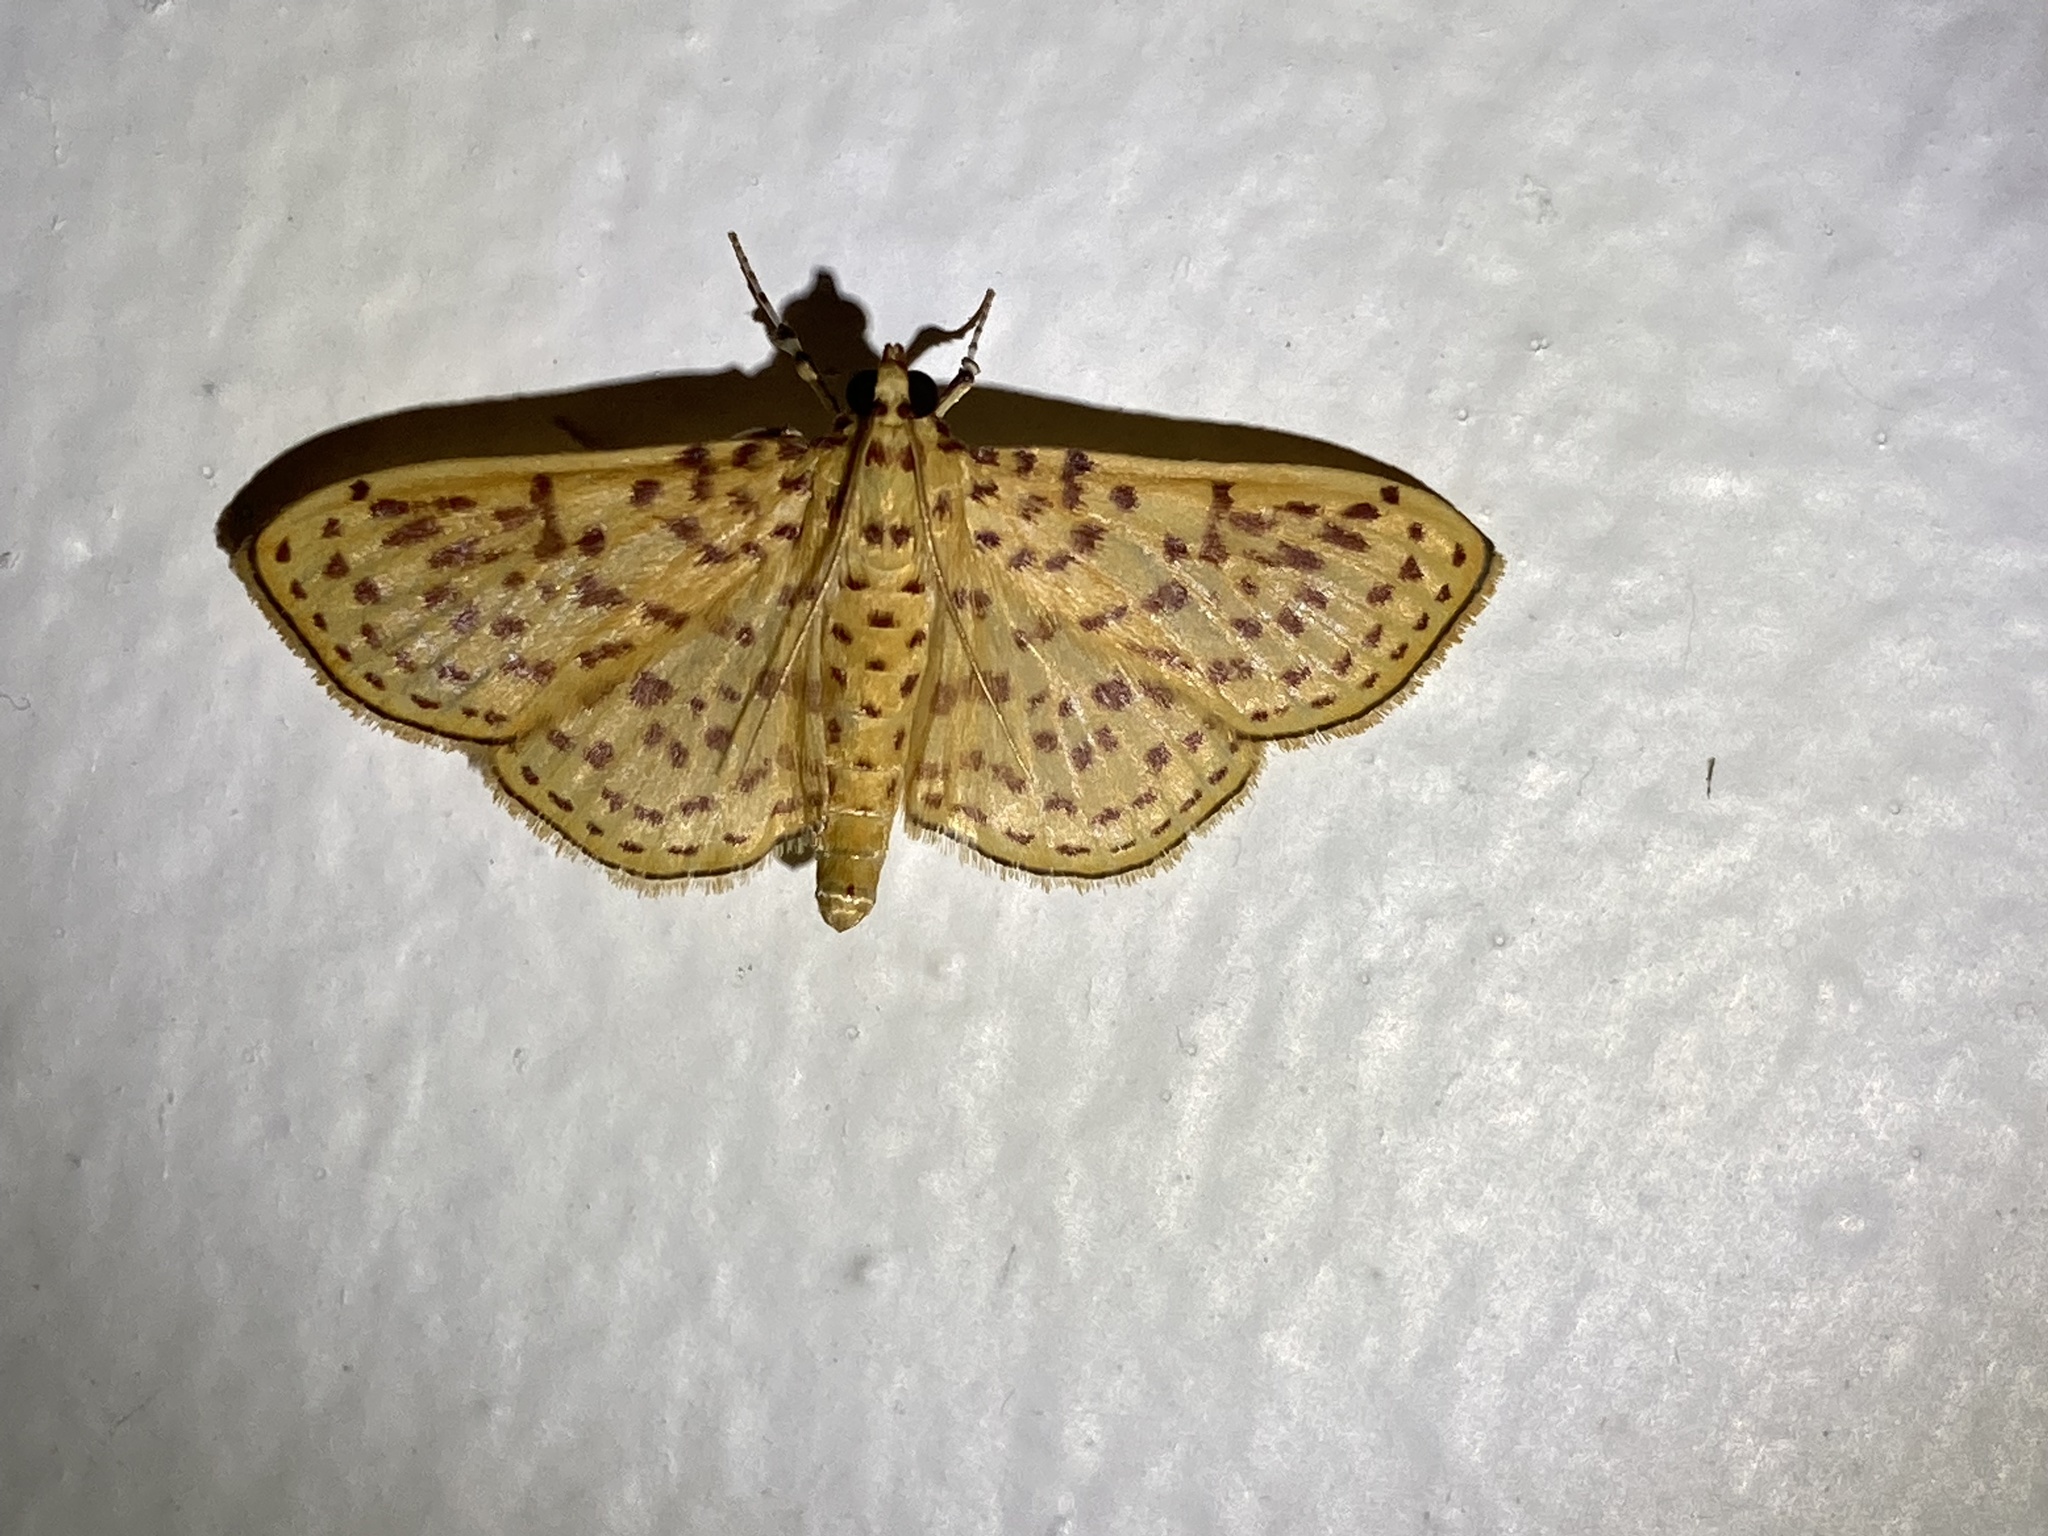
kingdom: Animalia
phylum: Arthropoda
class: Insecta
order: Lepidoptera
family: Crambidae
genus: Polygrammodes
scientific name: Polygrammodes elevata
